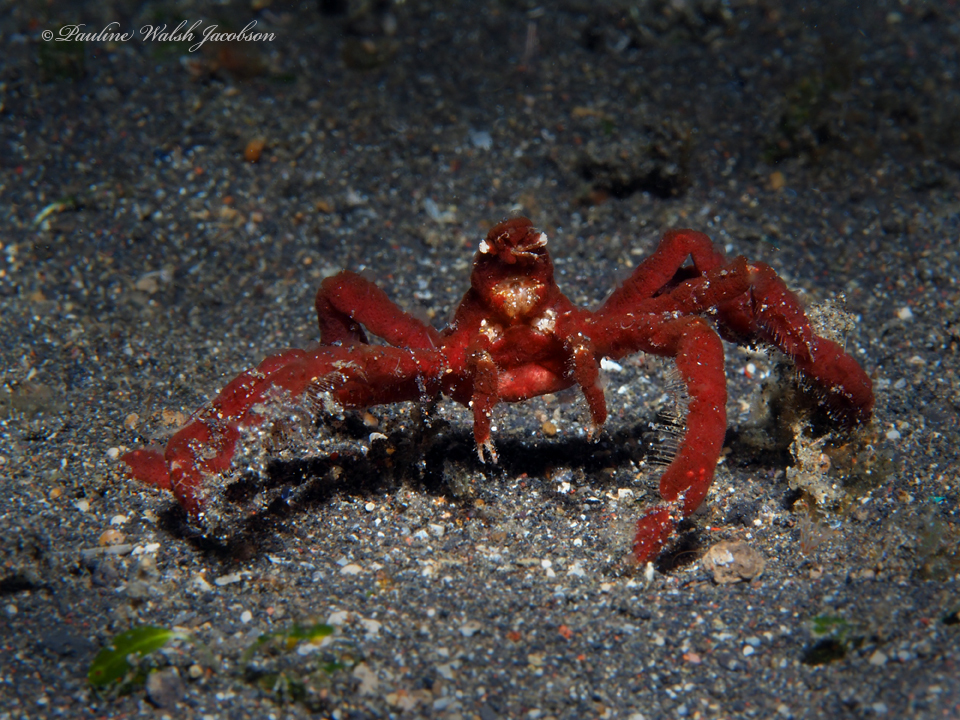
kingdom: Animalia
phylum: Arthropoda
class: Malacostraca
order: Decapoda
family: Inachidae
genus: Achaeus
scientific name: Achaeus japonicus
